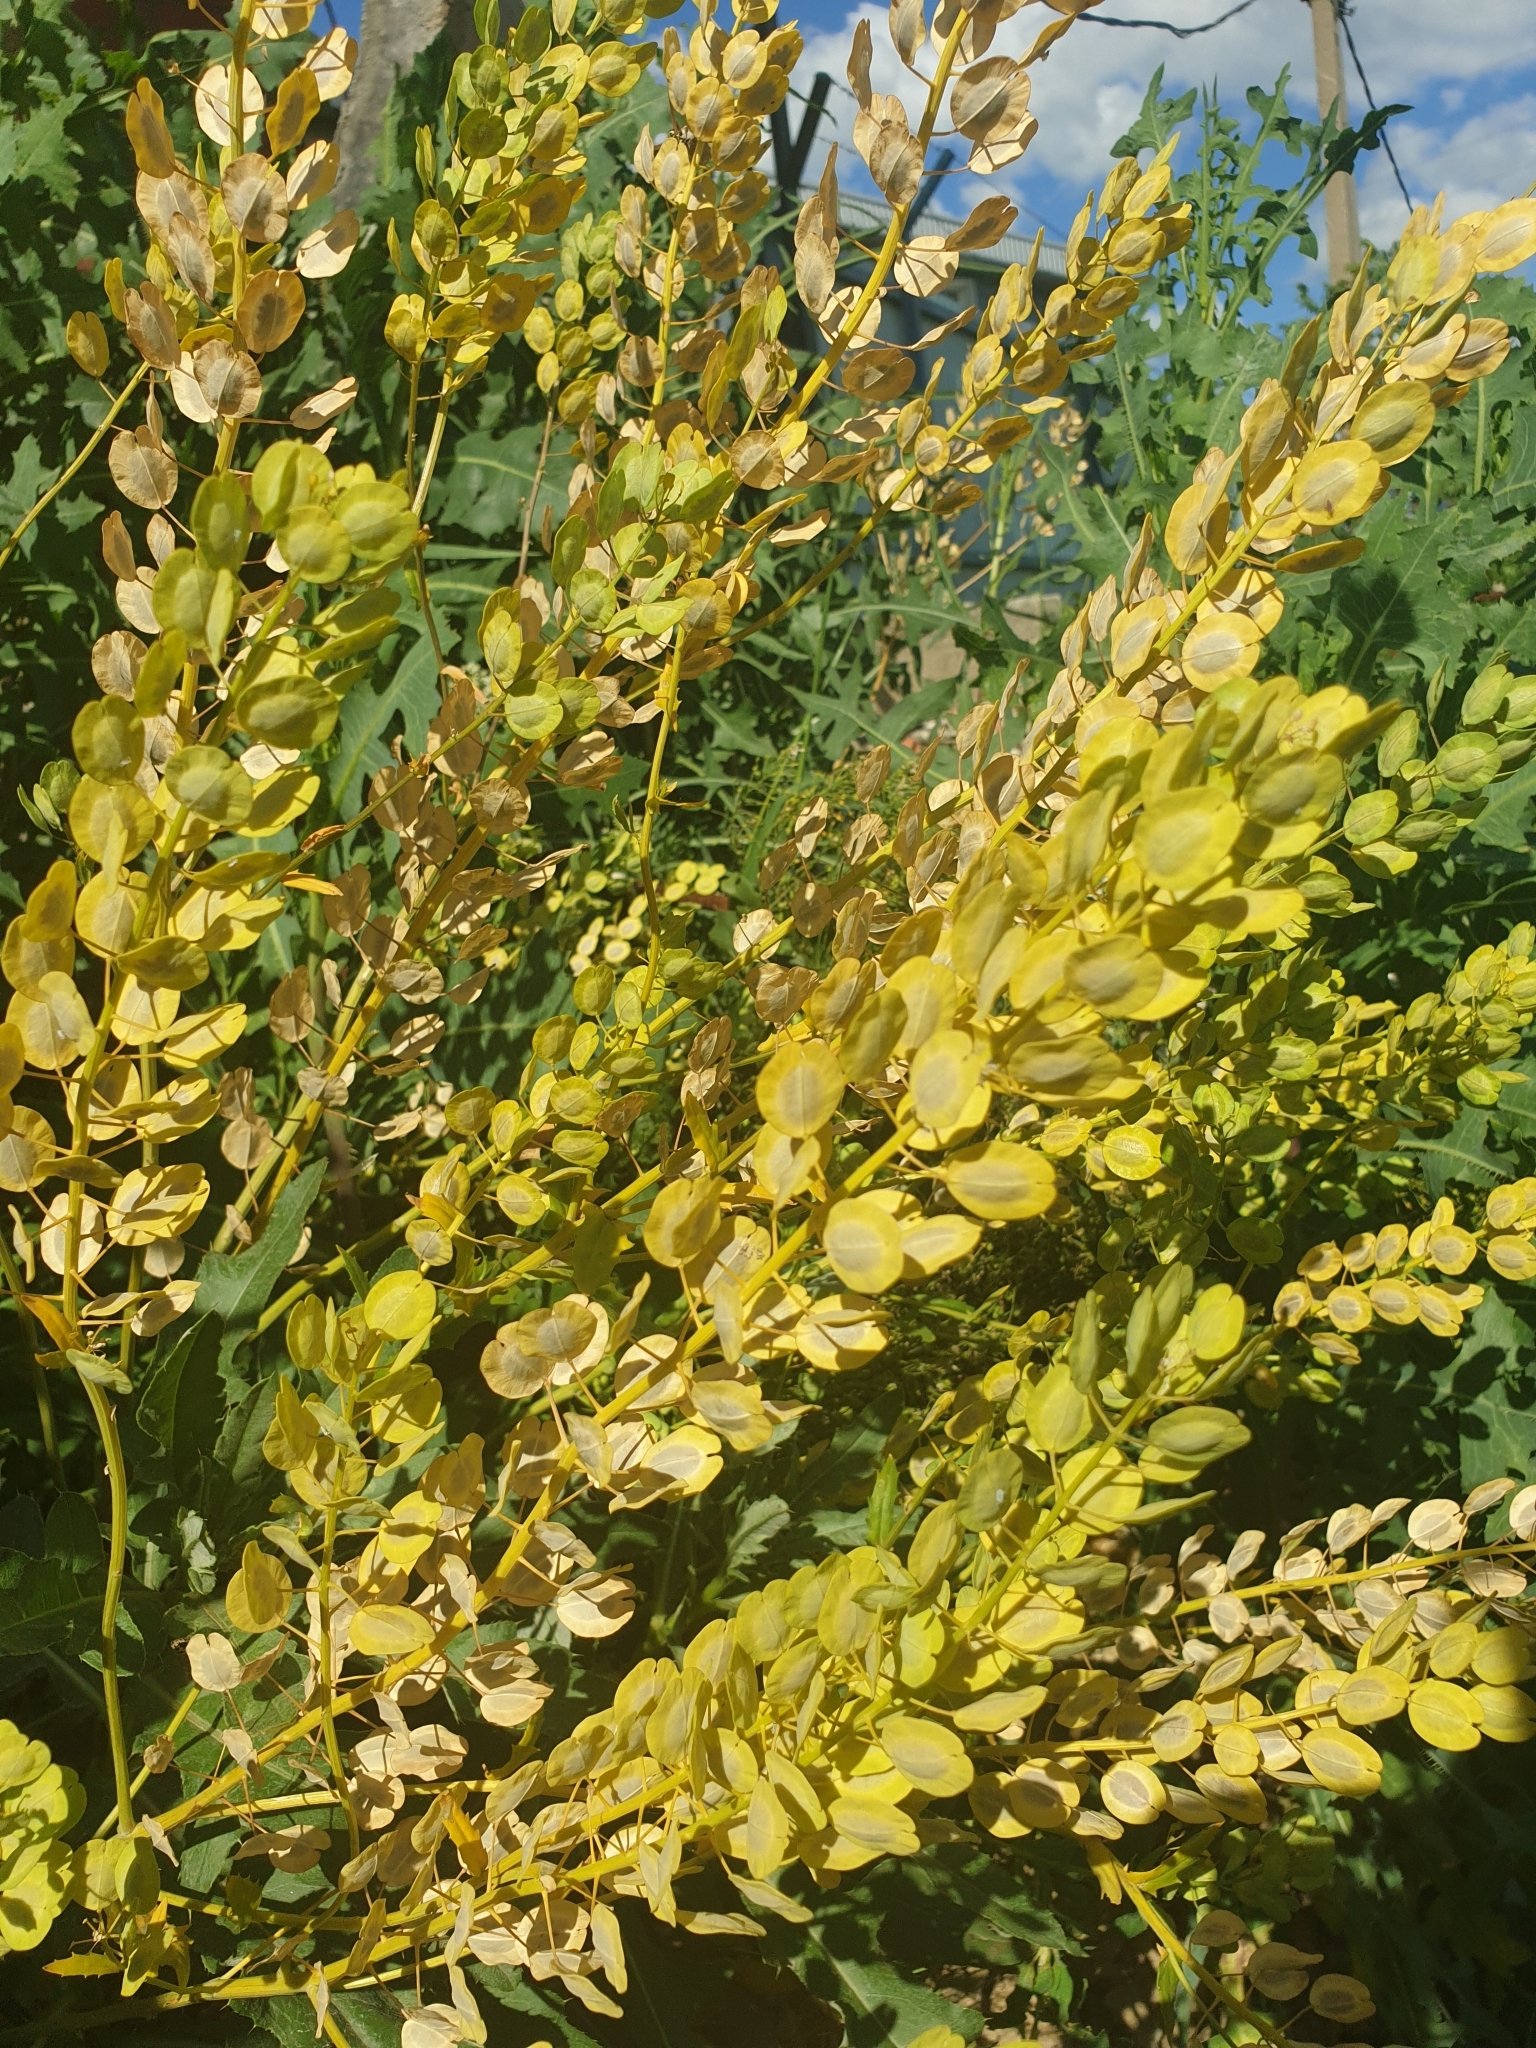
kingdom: Plantae
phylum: Tracheophyta
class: Magnoliopsida
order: Brassicales
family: Brassicaceae
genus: Thlaspi
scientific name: Thlaspi arvense
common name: Field pennycress
